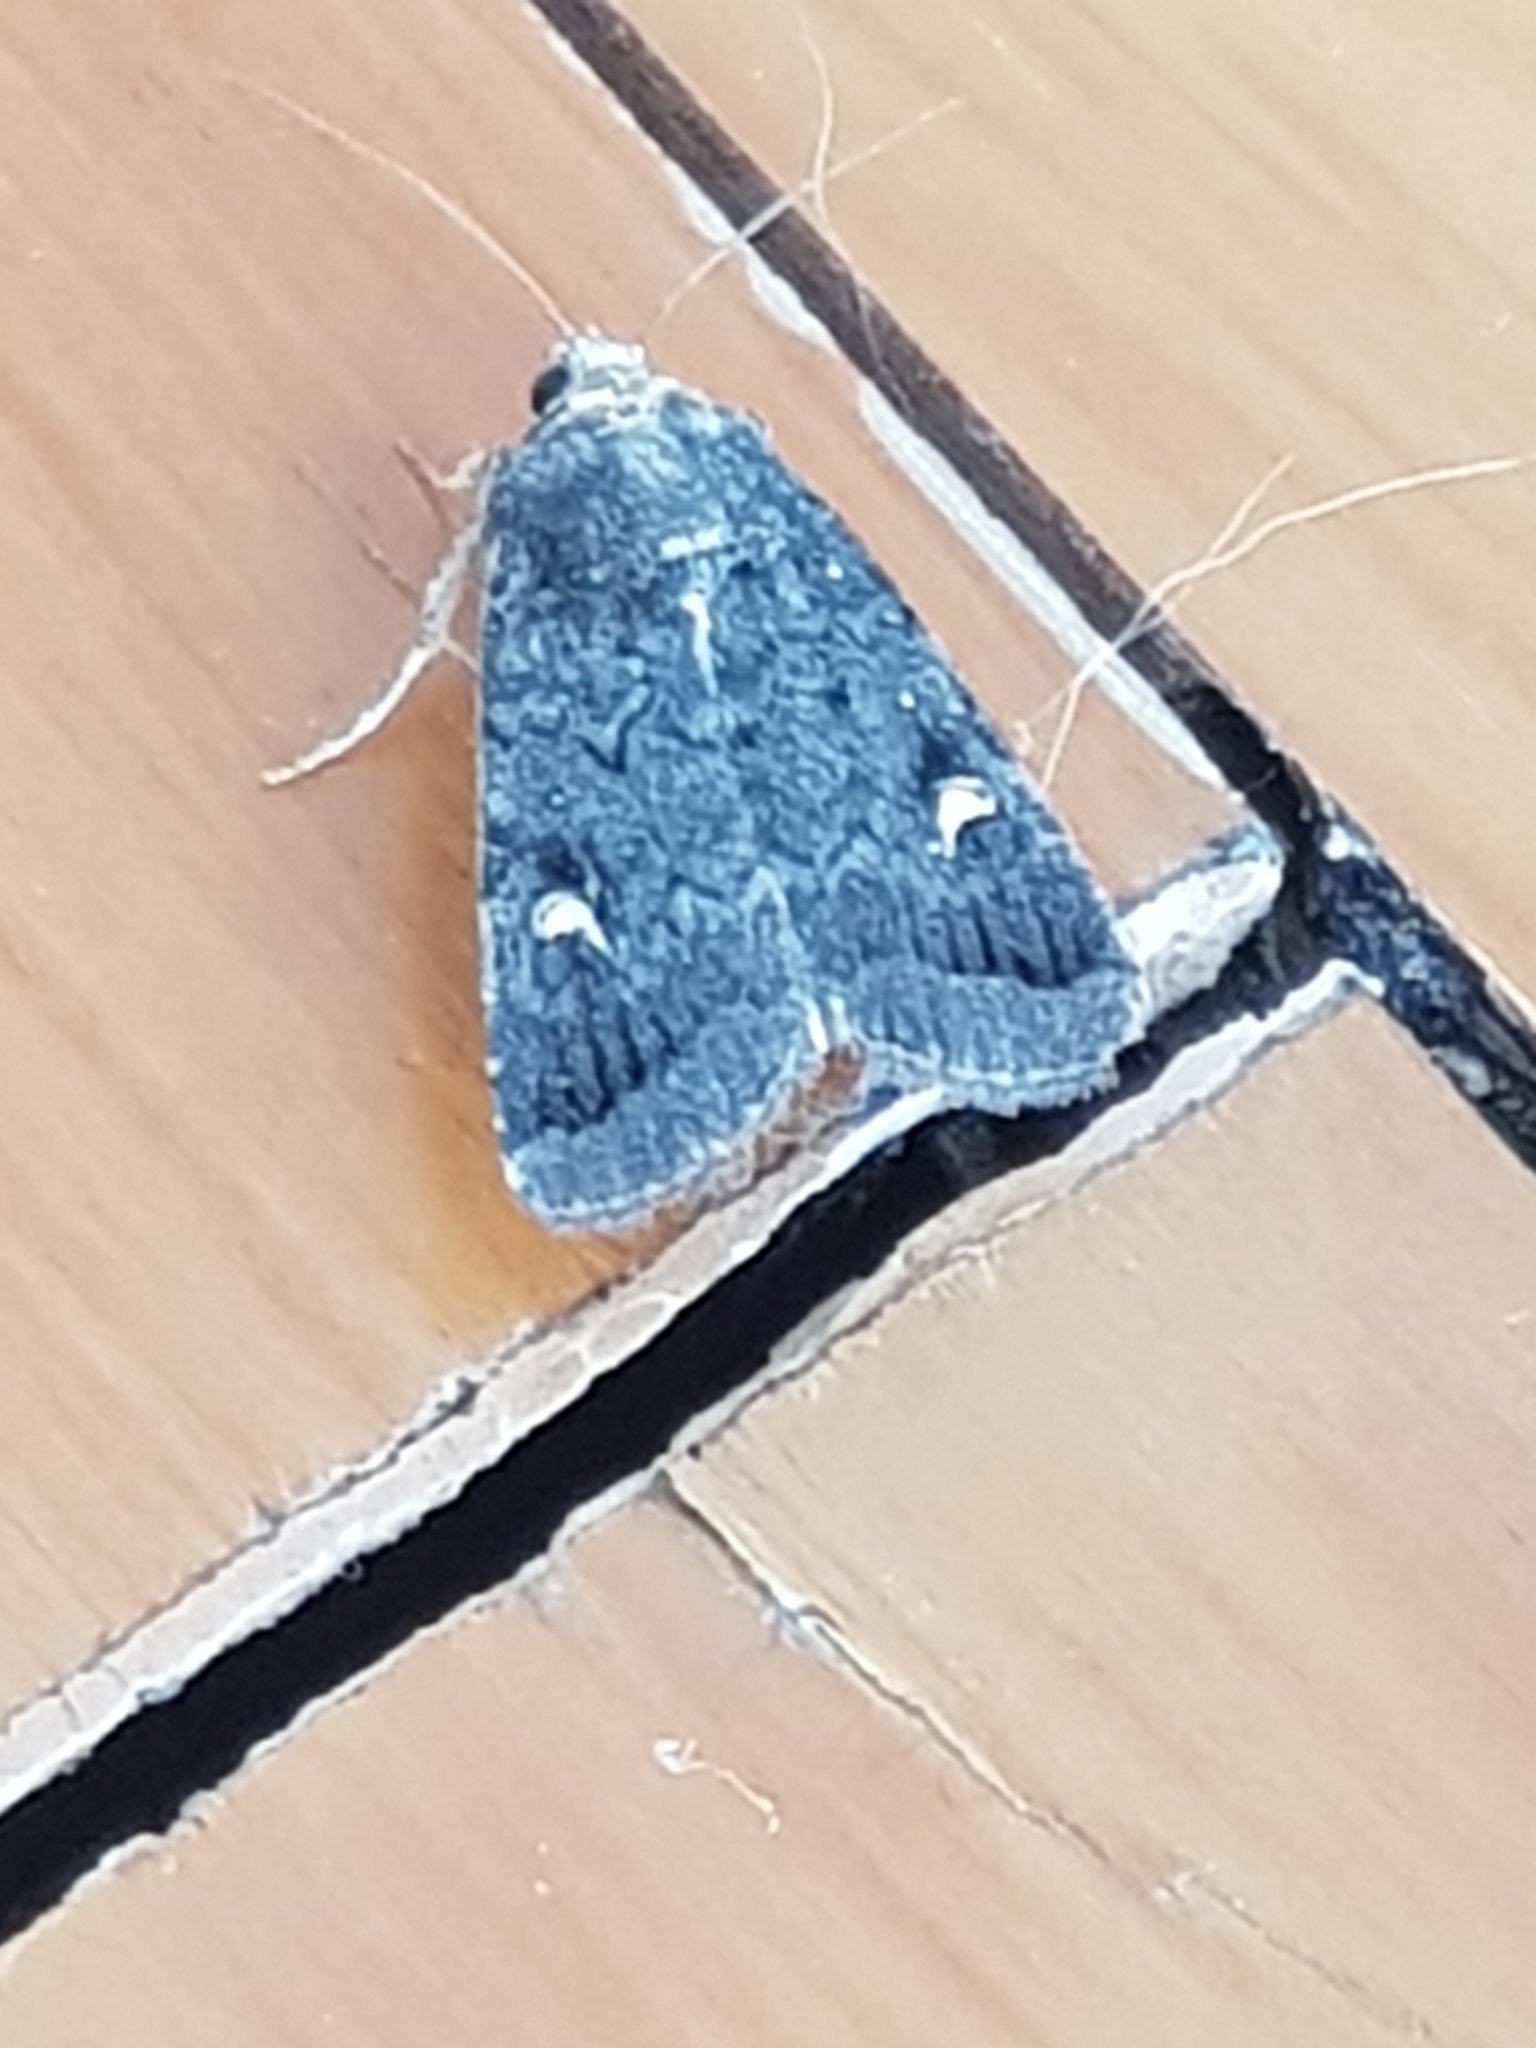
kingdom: Animalia
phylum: Arthropoda
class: Insecta
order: Lepidoptera
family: Noctuidae
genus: Proteuxoa
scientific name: Proteuxoa comma
